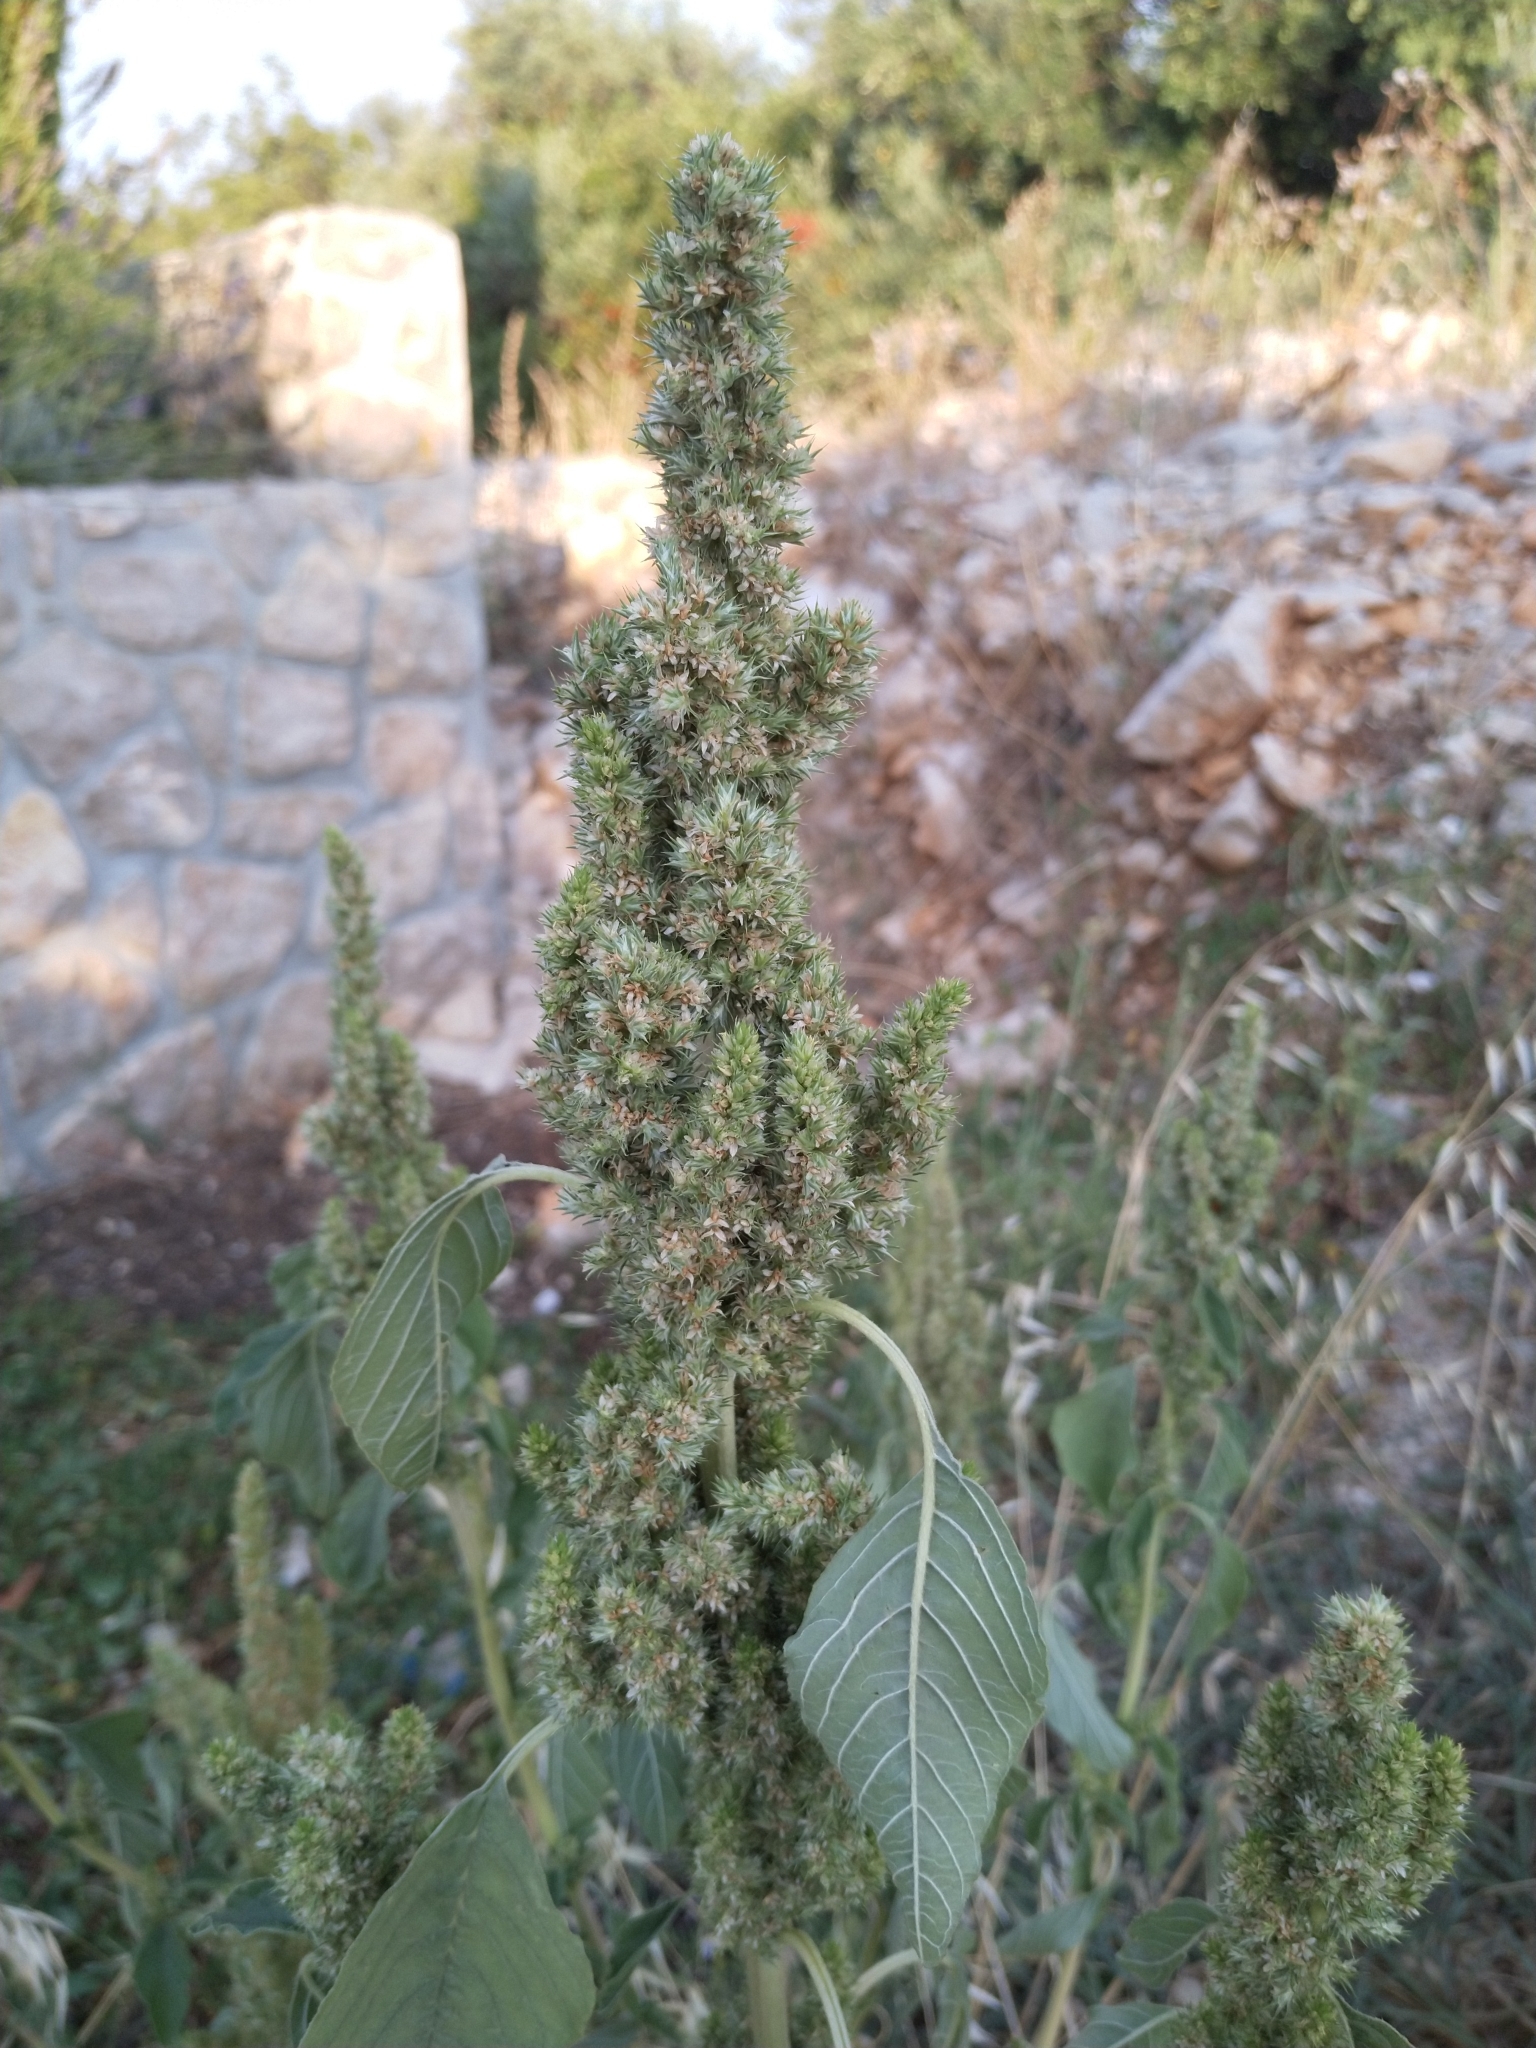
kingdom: Plantae
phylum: Tracheophyta
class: Magnoliopsida
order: Caryophyllales
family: Amaranthaceae
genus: Amaranthus
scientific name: Amaranthus retroflexus
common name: Redroot amaranth
